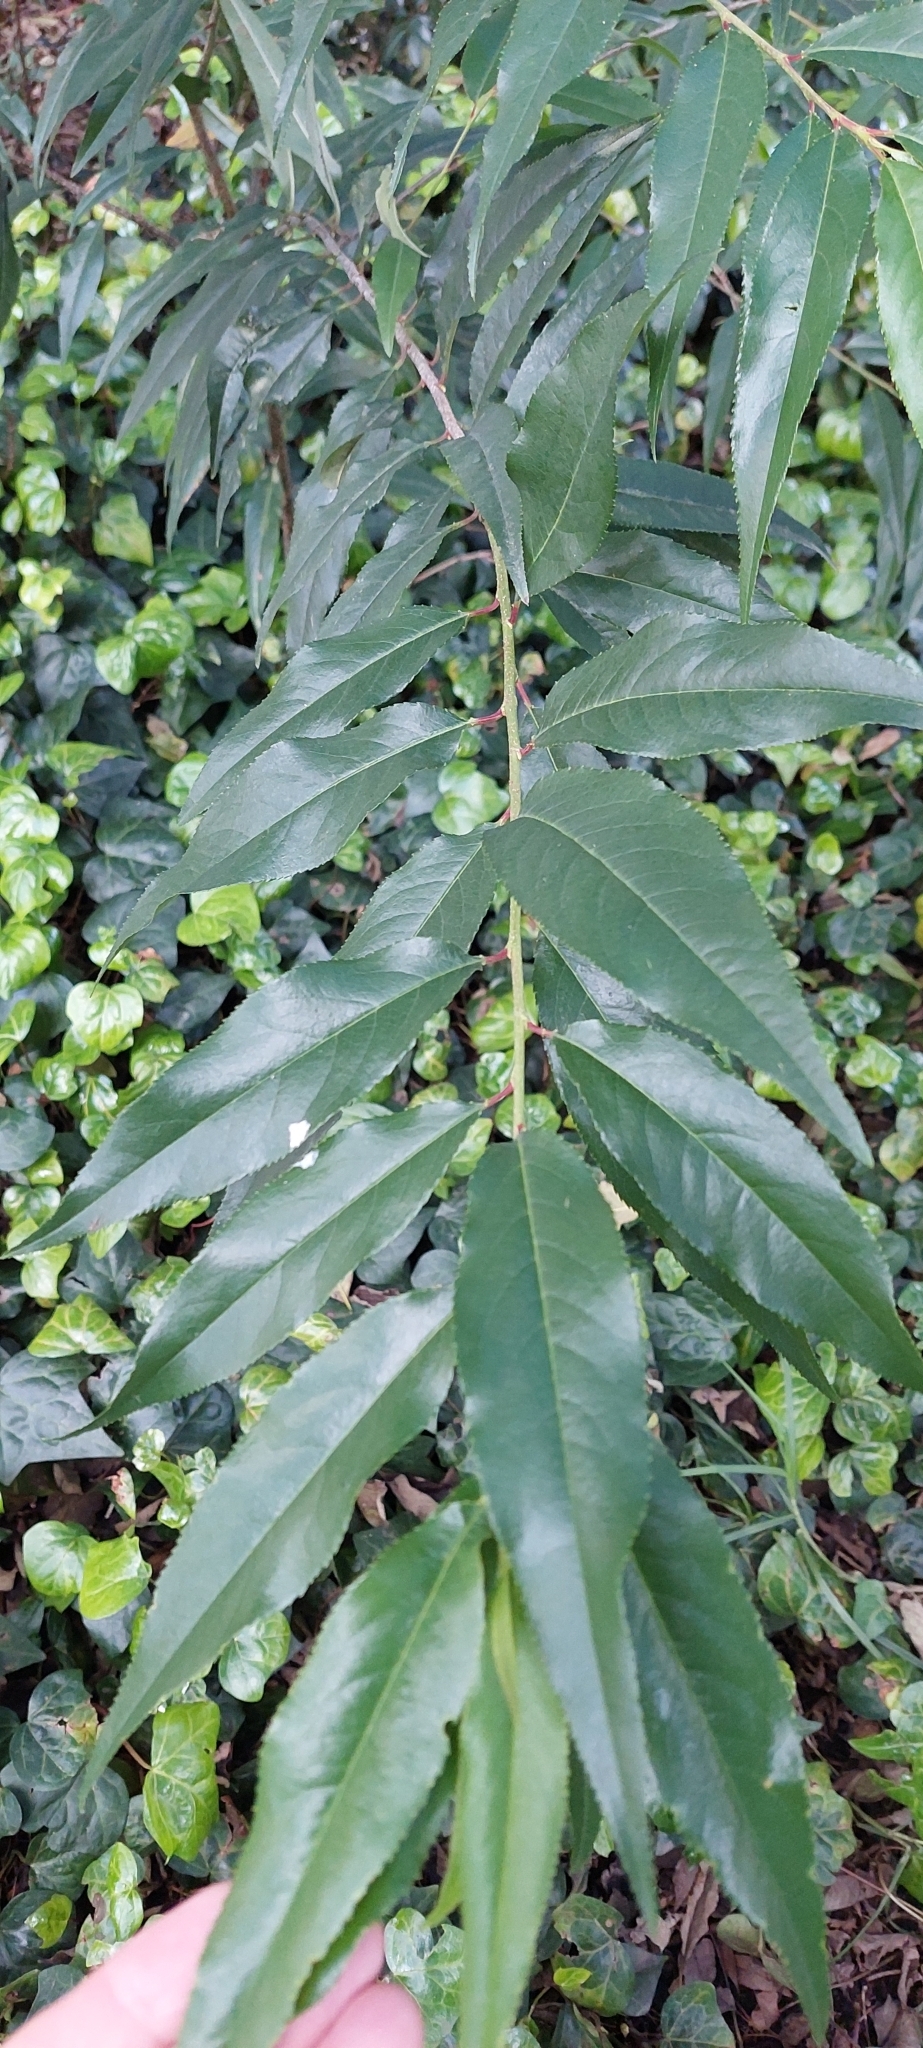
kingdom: Plantae
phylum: Tracheophyta
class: Magnoliopsida
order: Rosales
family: Rosaceae
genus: Prunus
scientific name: Prunus serotina
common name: Black cherry
